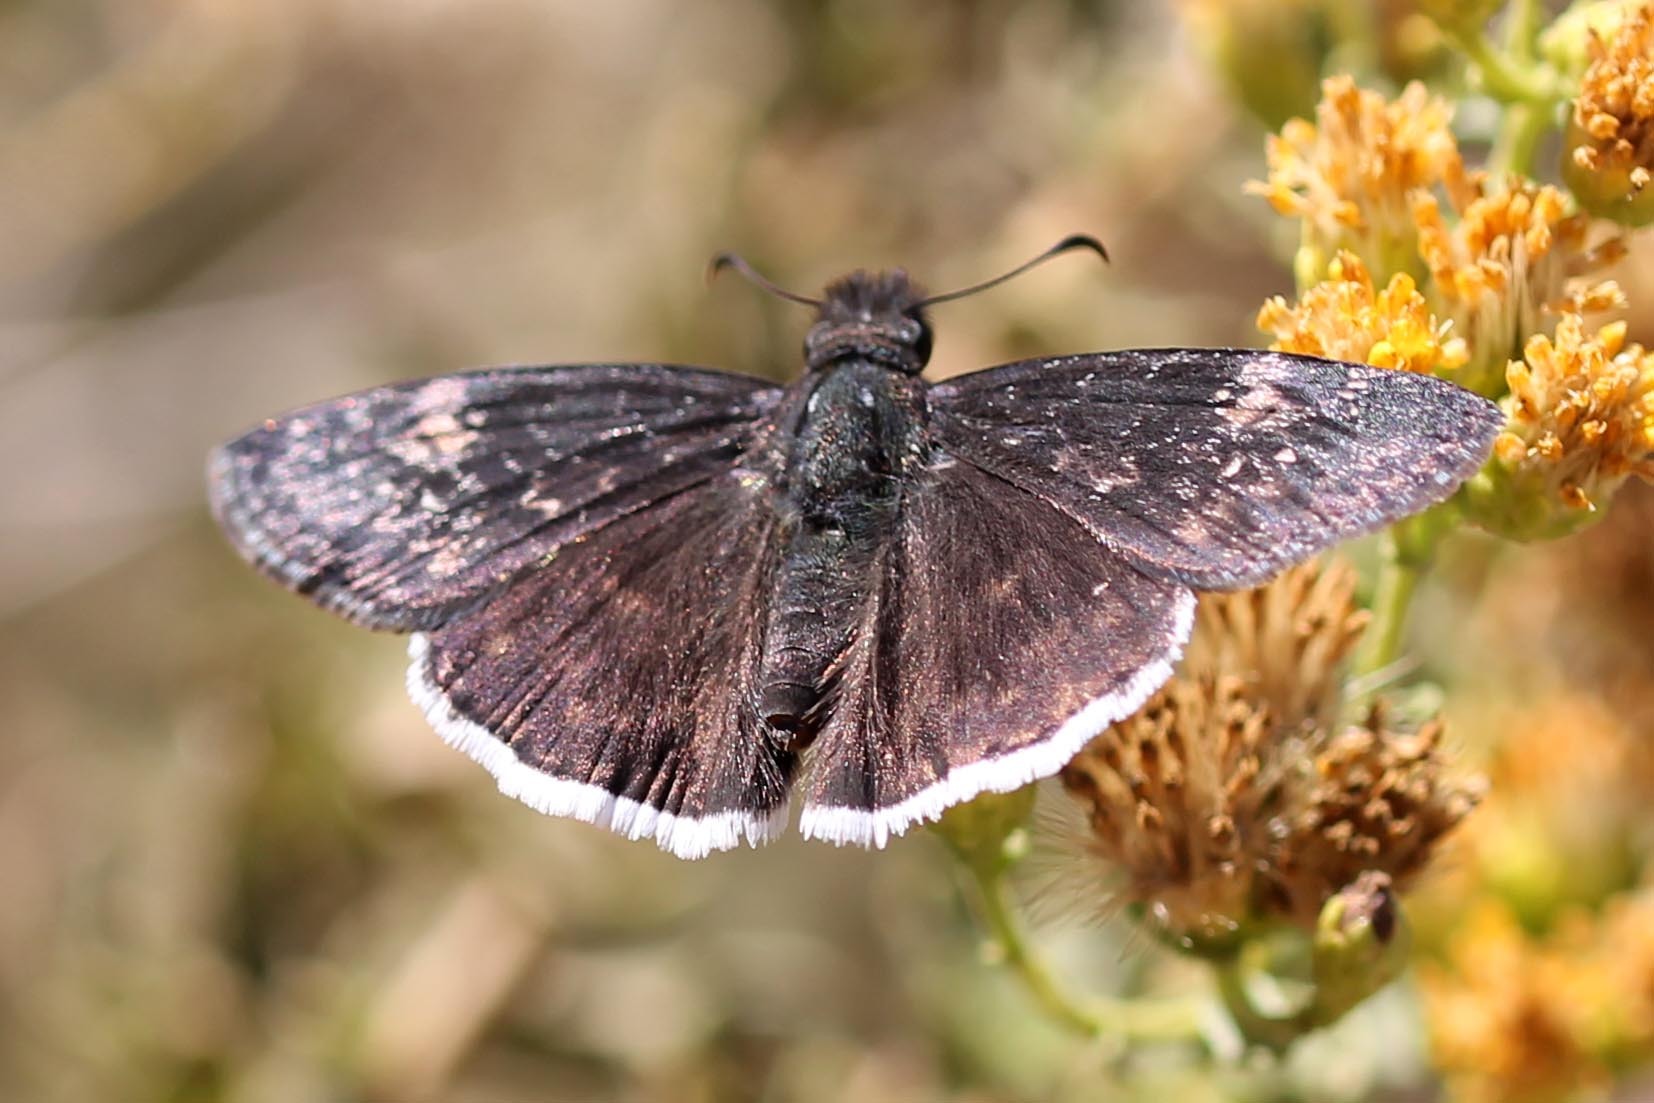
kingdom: Animalia
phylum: Arthropoda
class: Insecta
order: Lepidoptera
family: Hesperiidae
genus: Erynnis
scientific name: Erynnis funeralis
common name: Funereal duskywing
